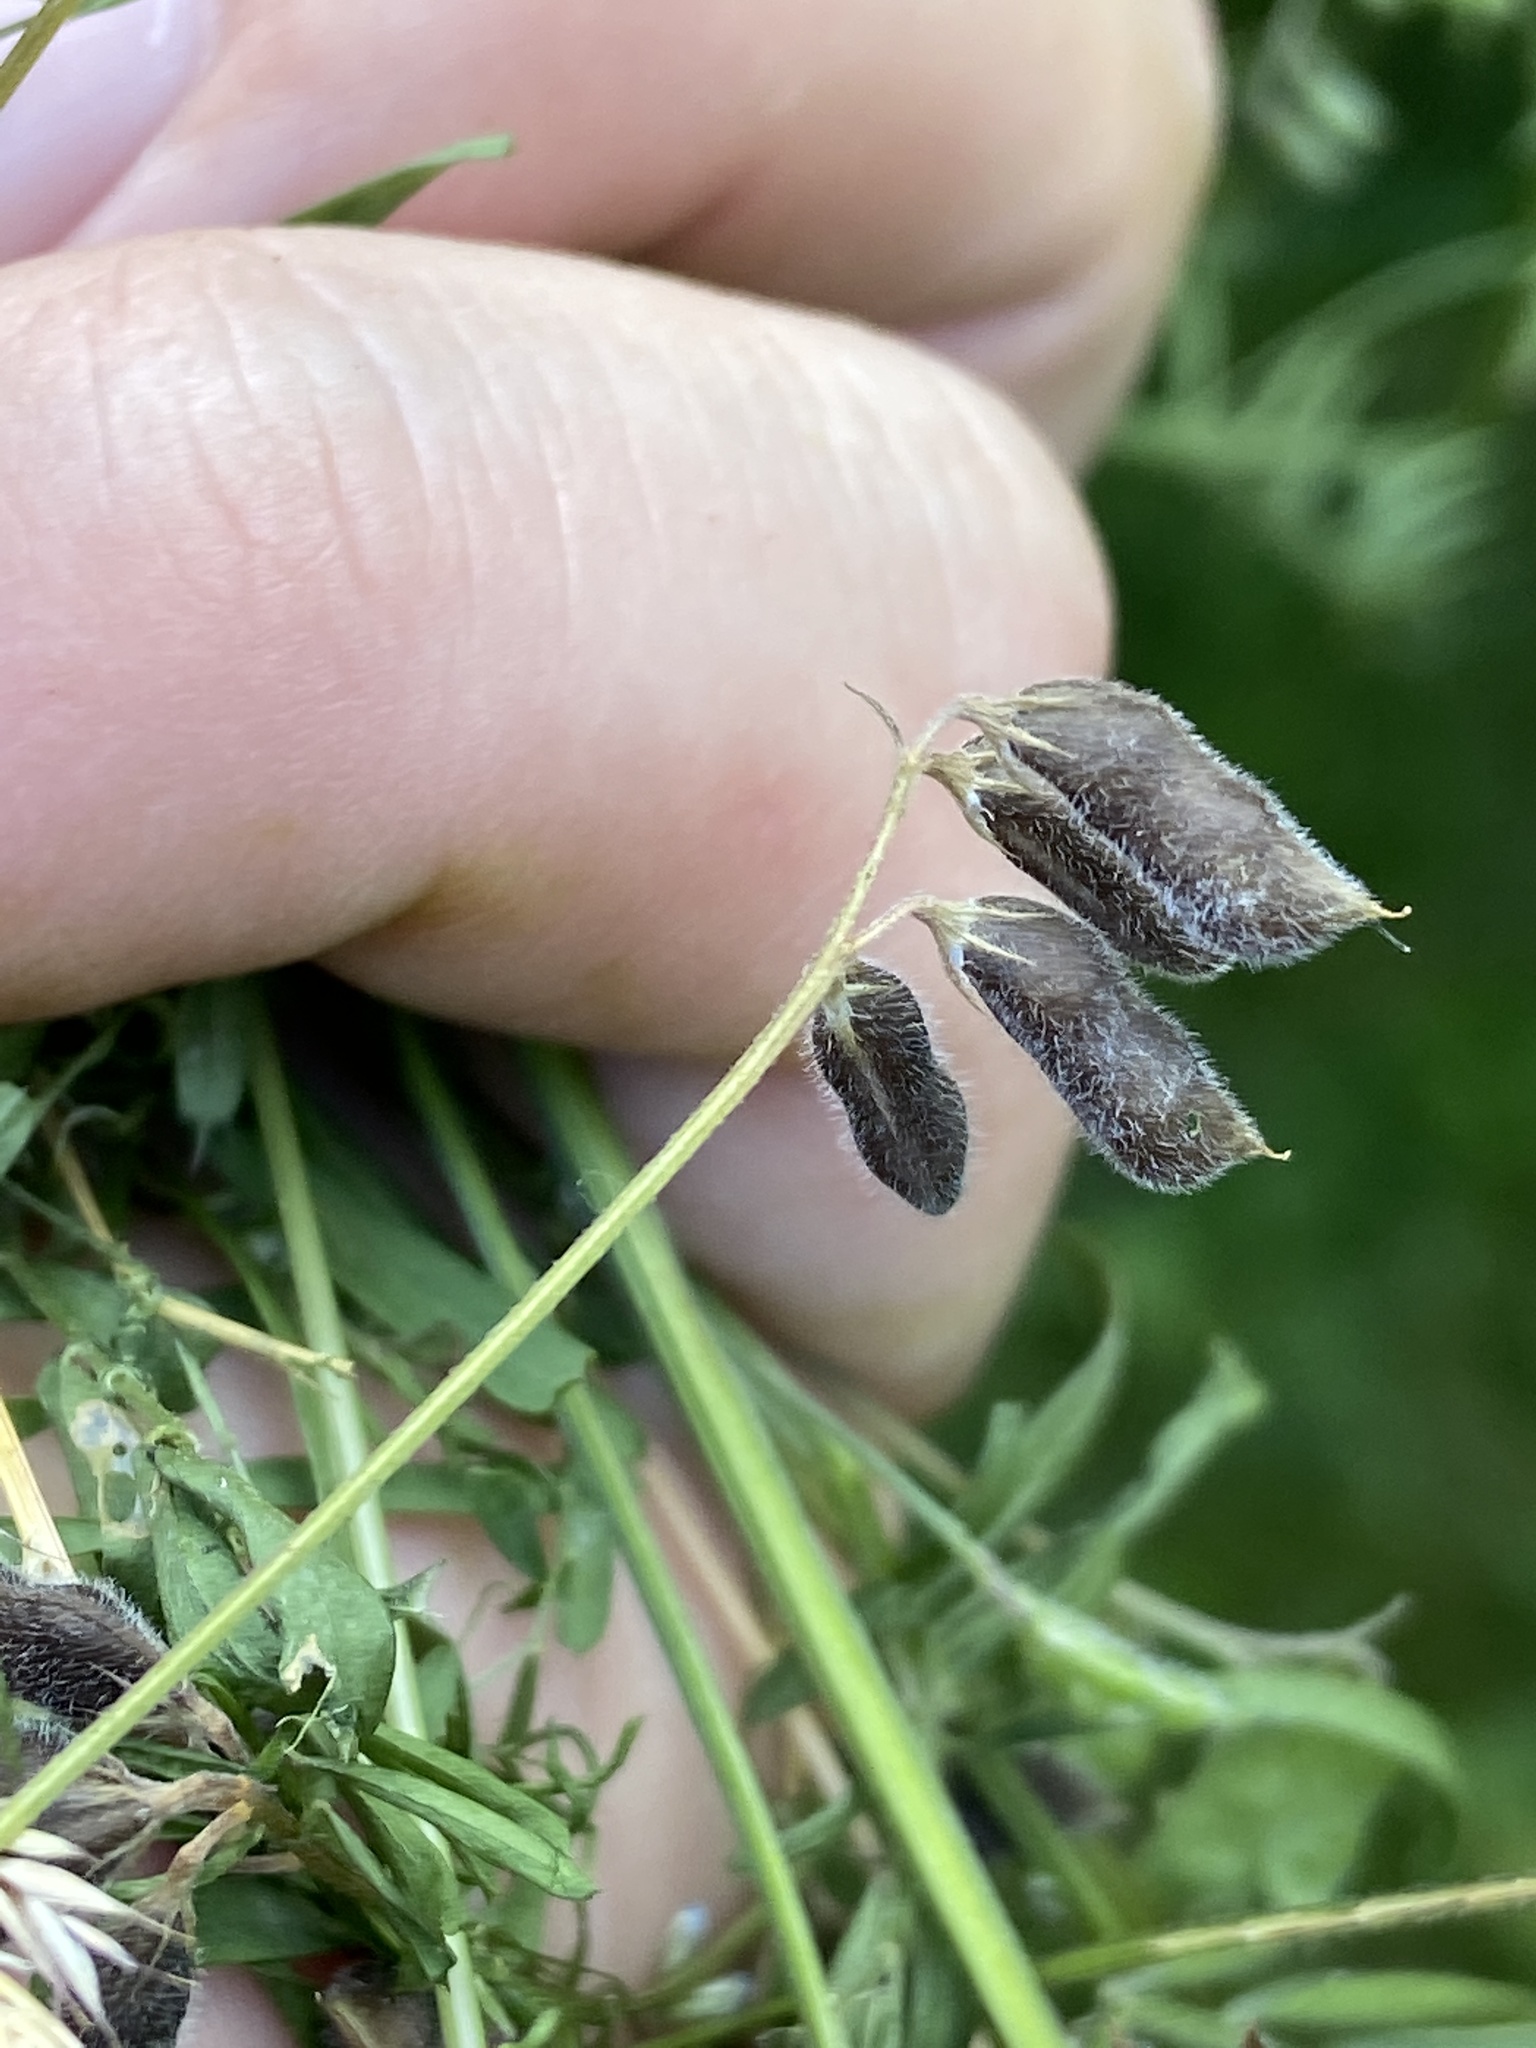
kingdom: Plantae
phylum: Tracheophyta
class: Magnoliopsida
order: Fabales
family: Fabaceae
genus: Vicia
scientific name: Vicia hirsuta
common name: Tiny vetch
